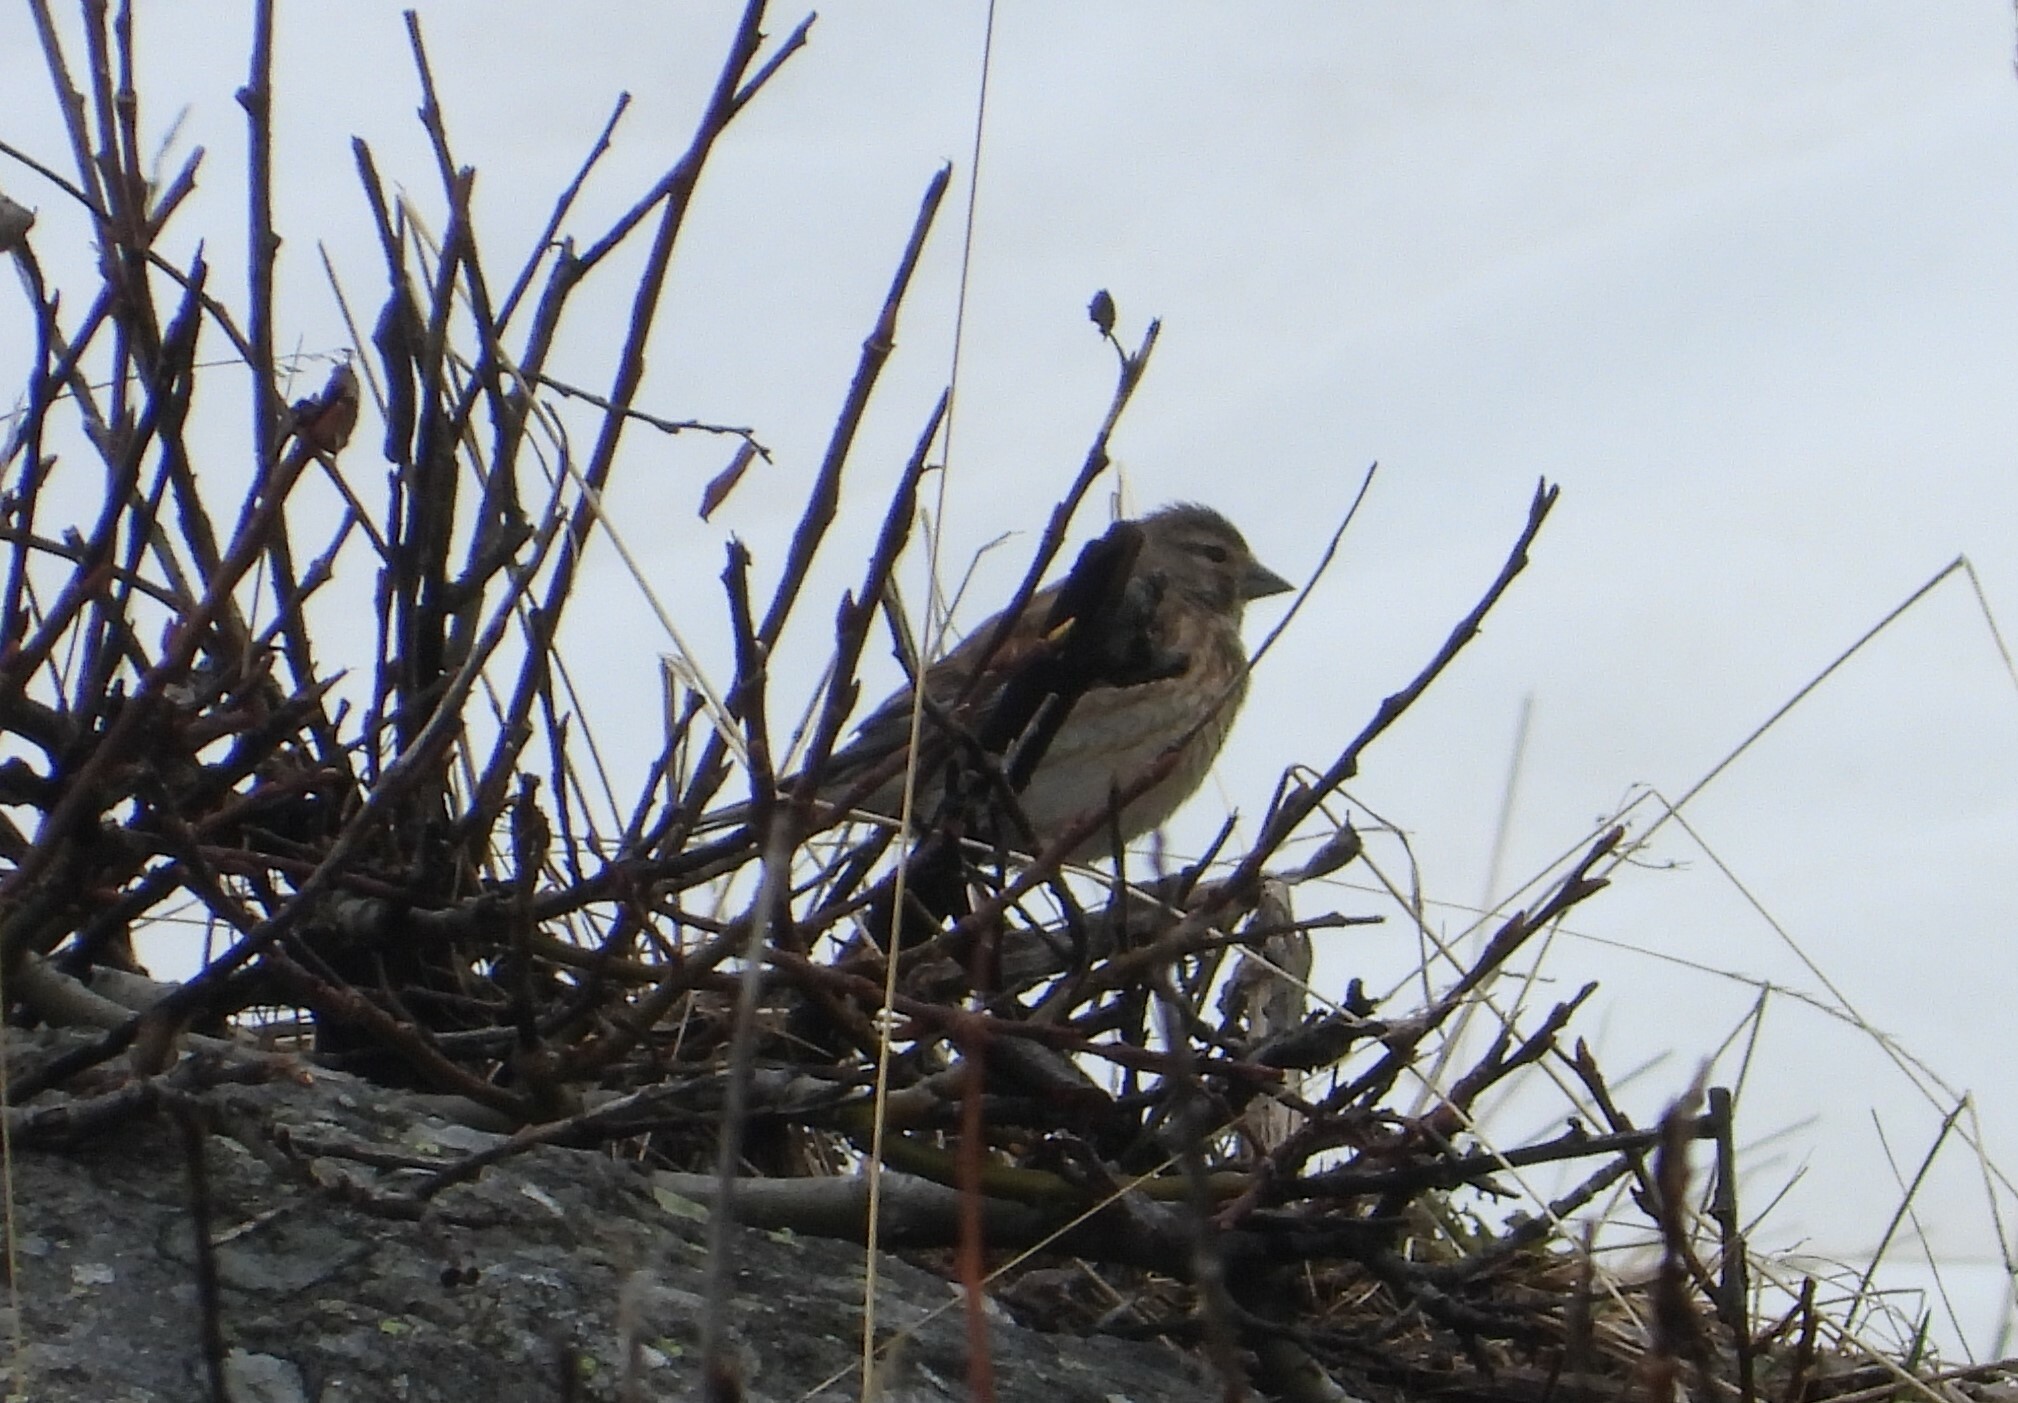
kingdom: Animalia
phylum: Chordata
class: Aves
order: Passeriformes
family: Fringillidae
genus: Linaria
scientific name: Linaria cannabina
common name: Common linnet
